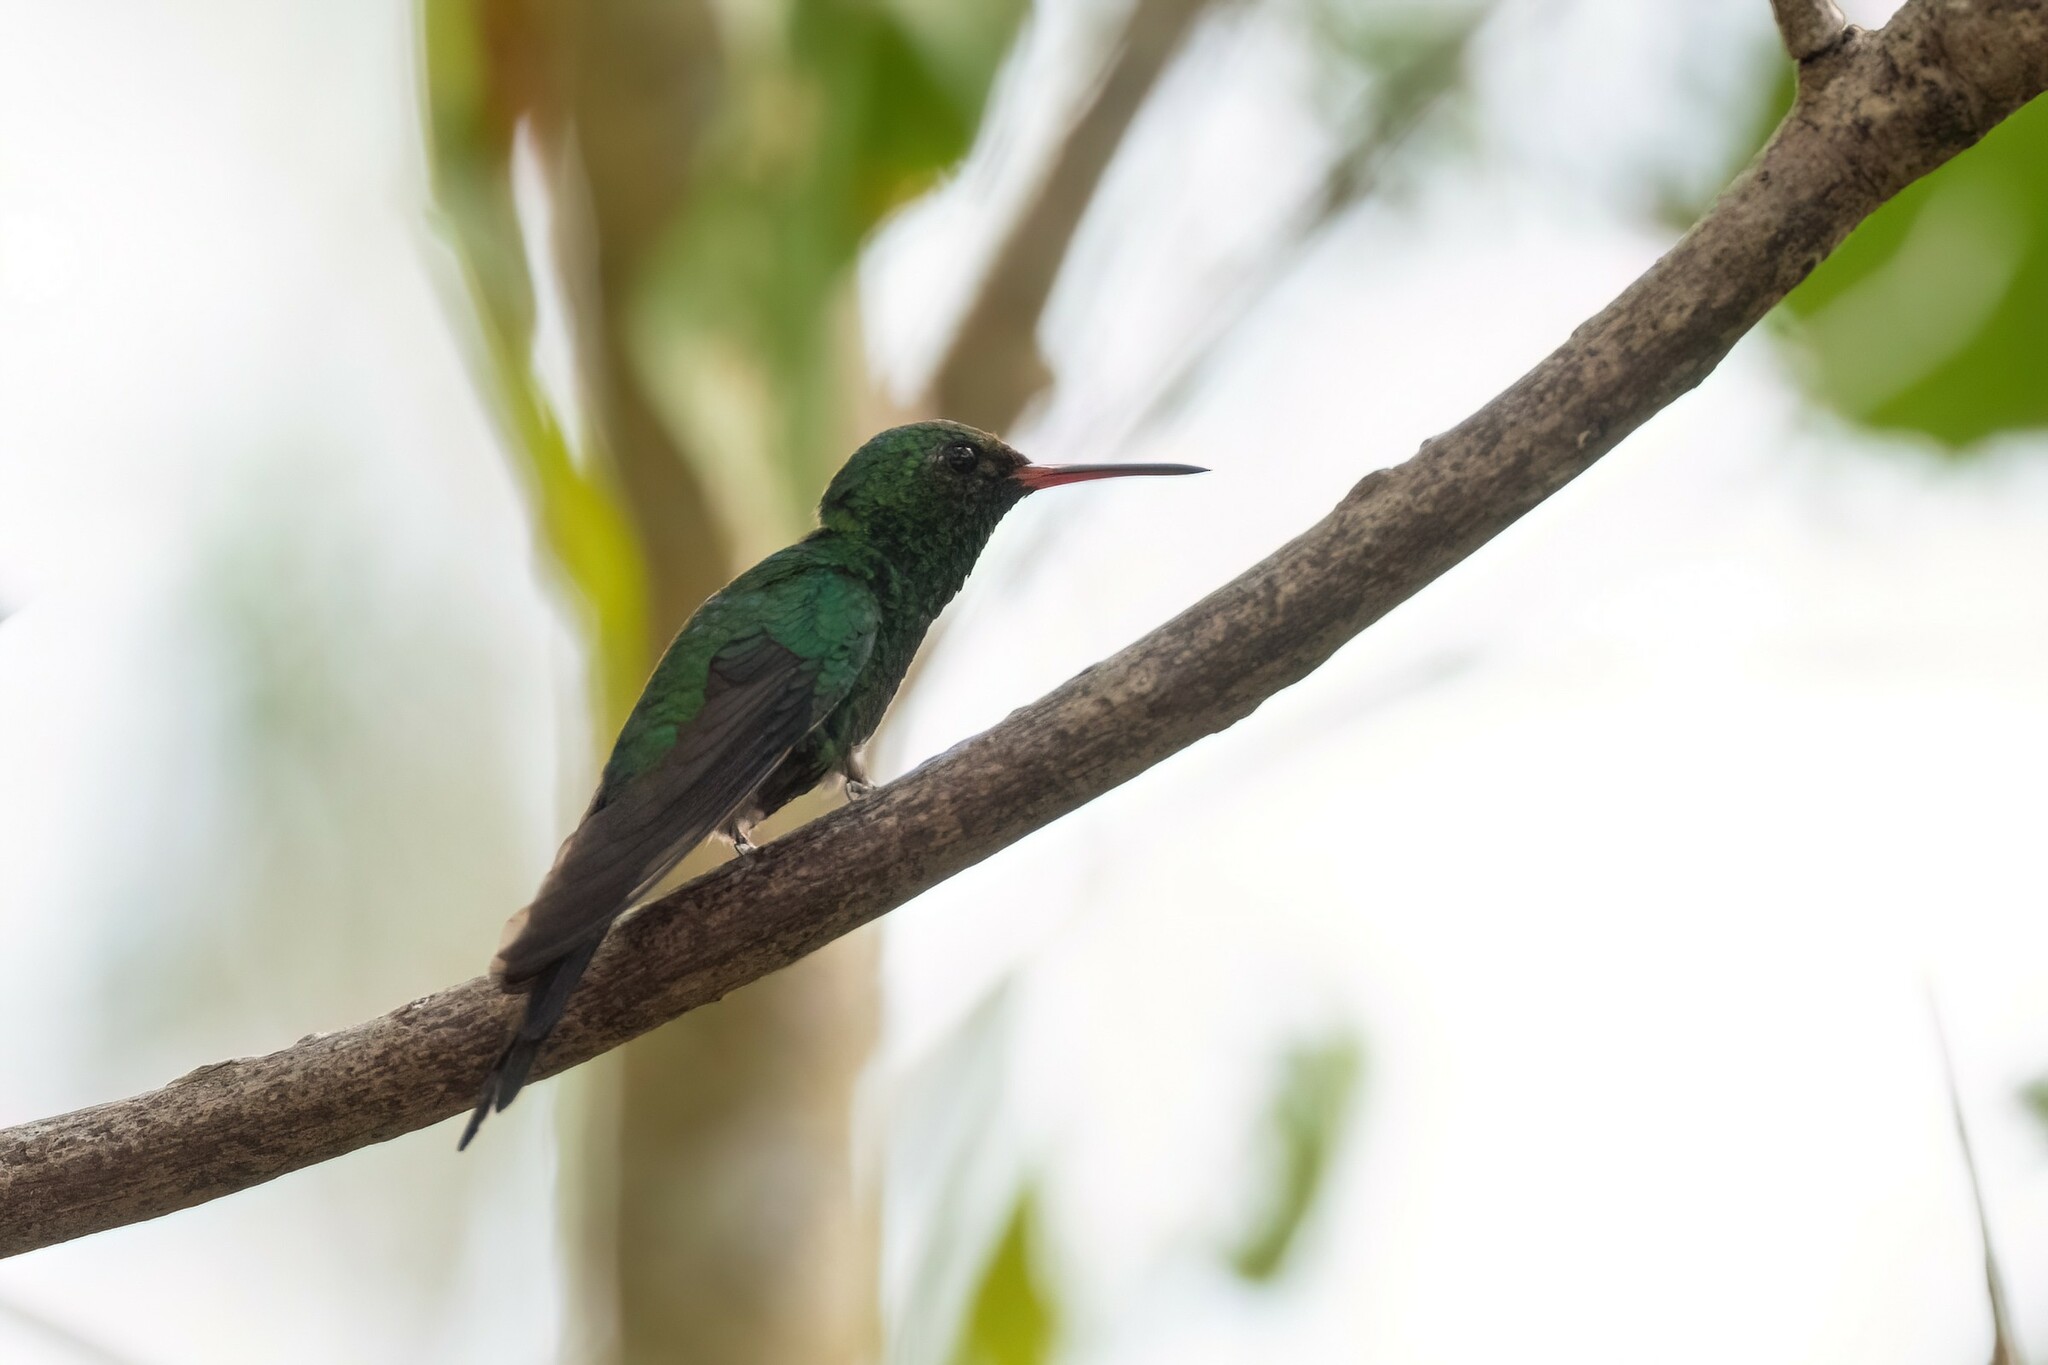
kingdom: Animalia
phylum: Chordata
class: Aves
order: Apodiformes
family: Trochilidae
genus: Cynanthus
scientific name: Cynanthus forficatus
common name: Cozumel emerald
